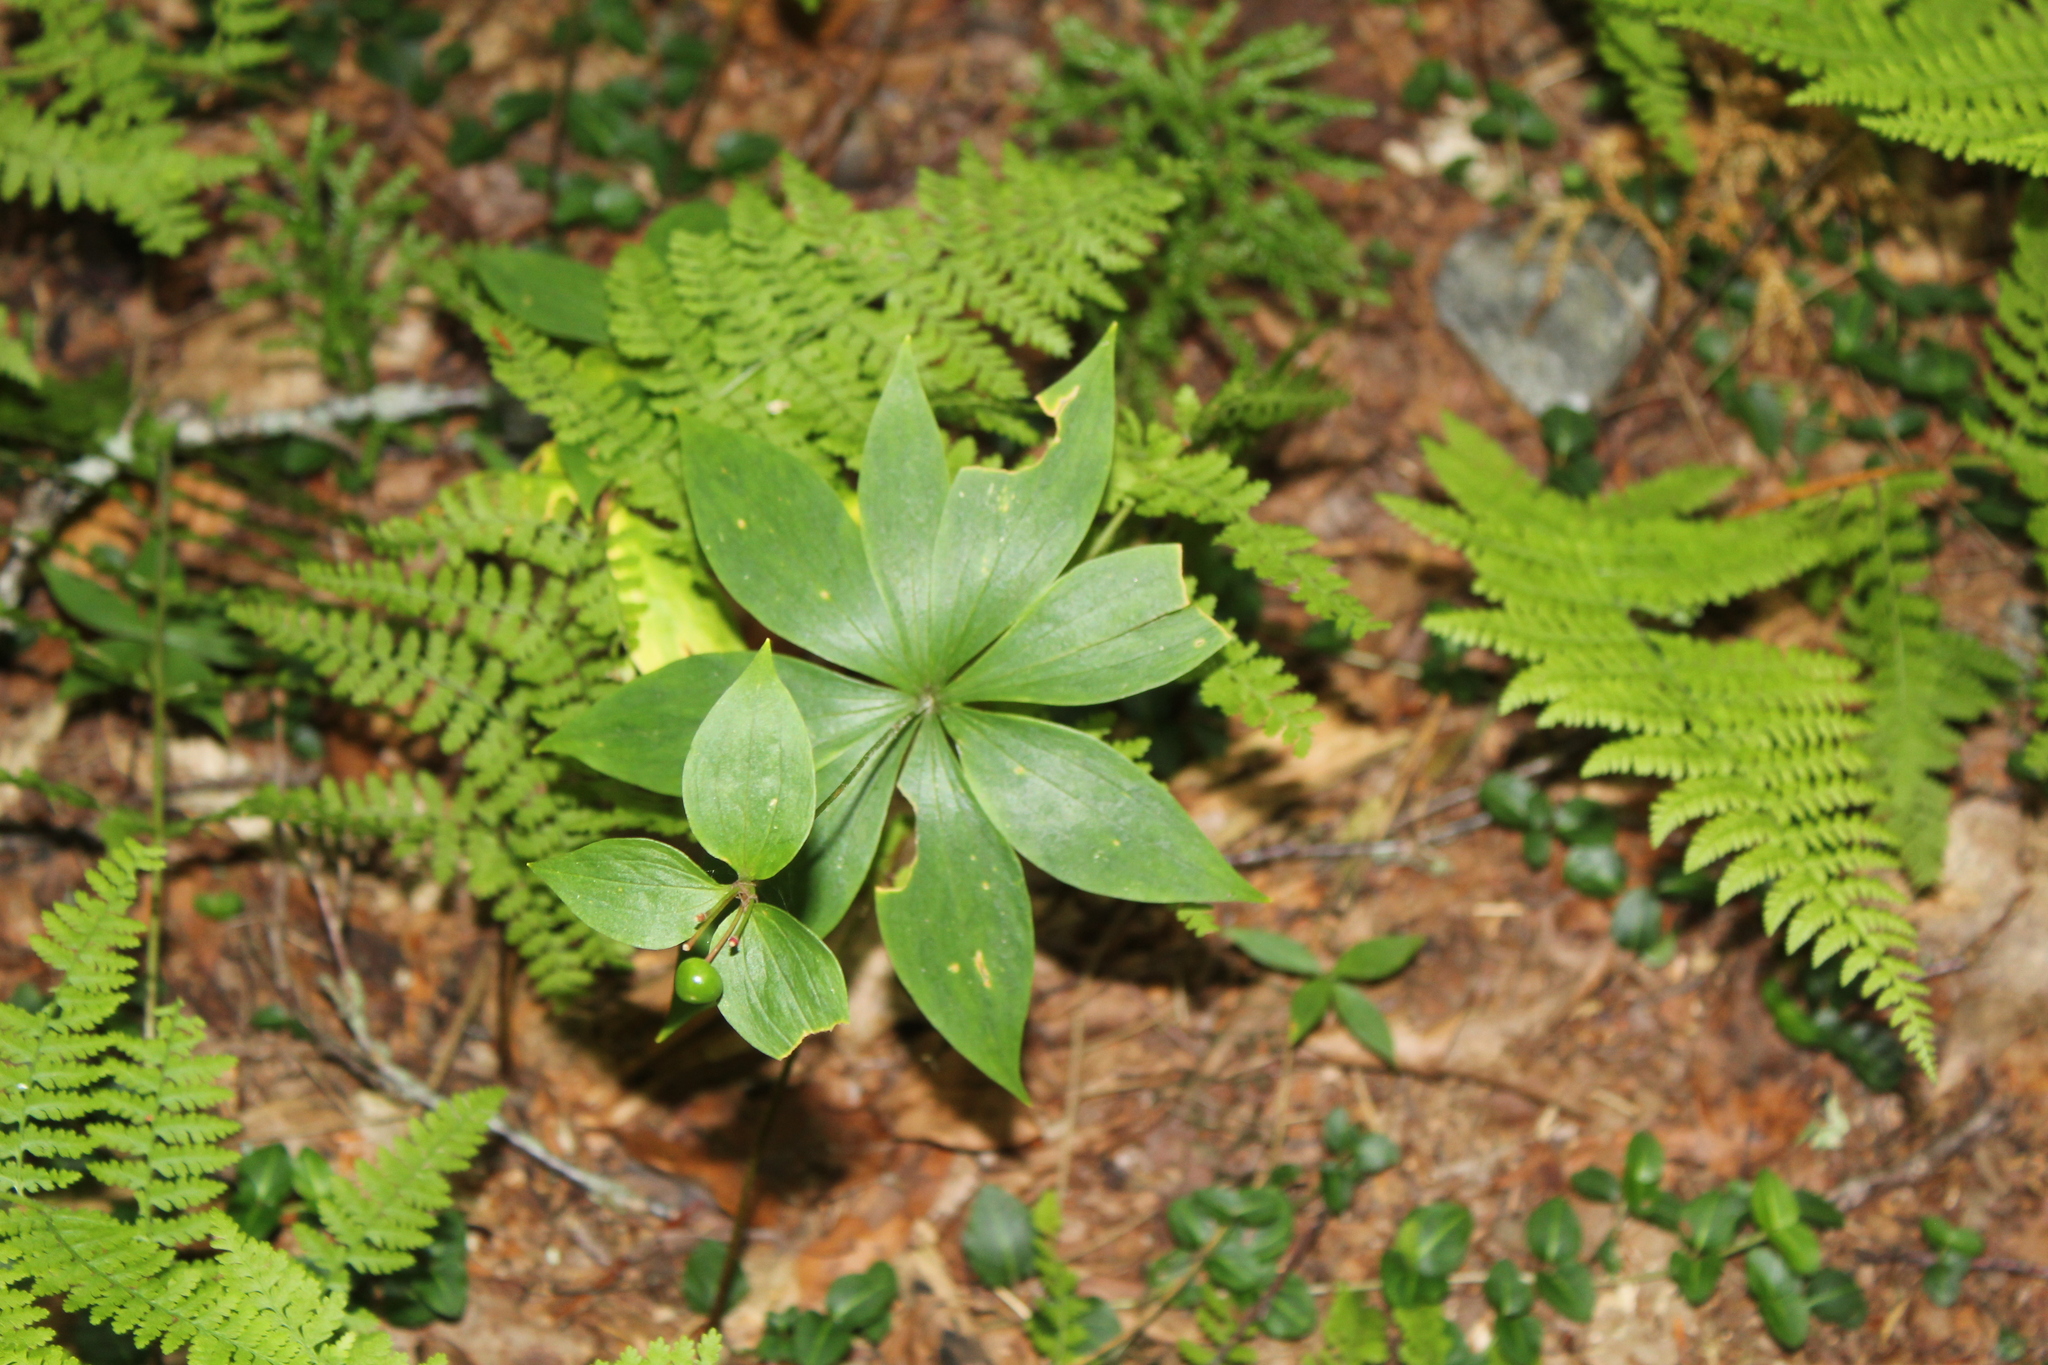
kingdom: Plantae
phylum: Tracheophyta
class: Liliopsida
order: Liliales
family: Liliaceae
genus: Medeola
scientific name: Medeola virginiana
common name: Indian cucumber-root
